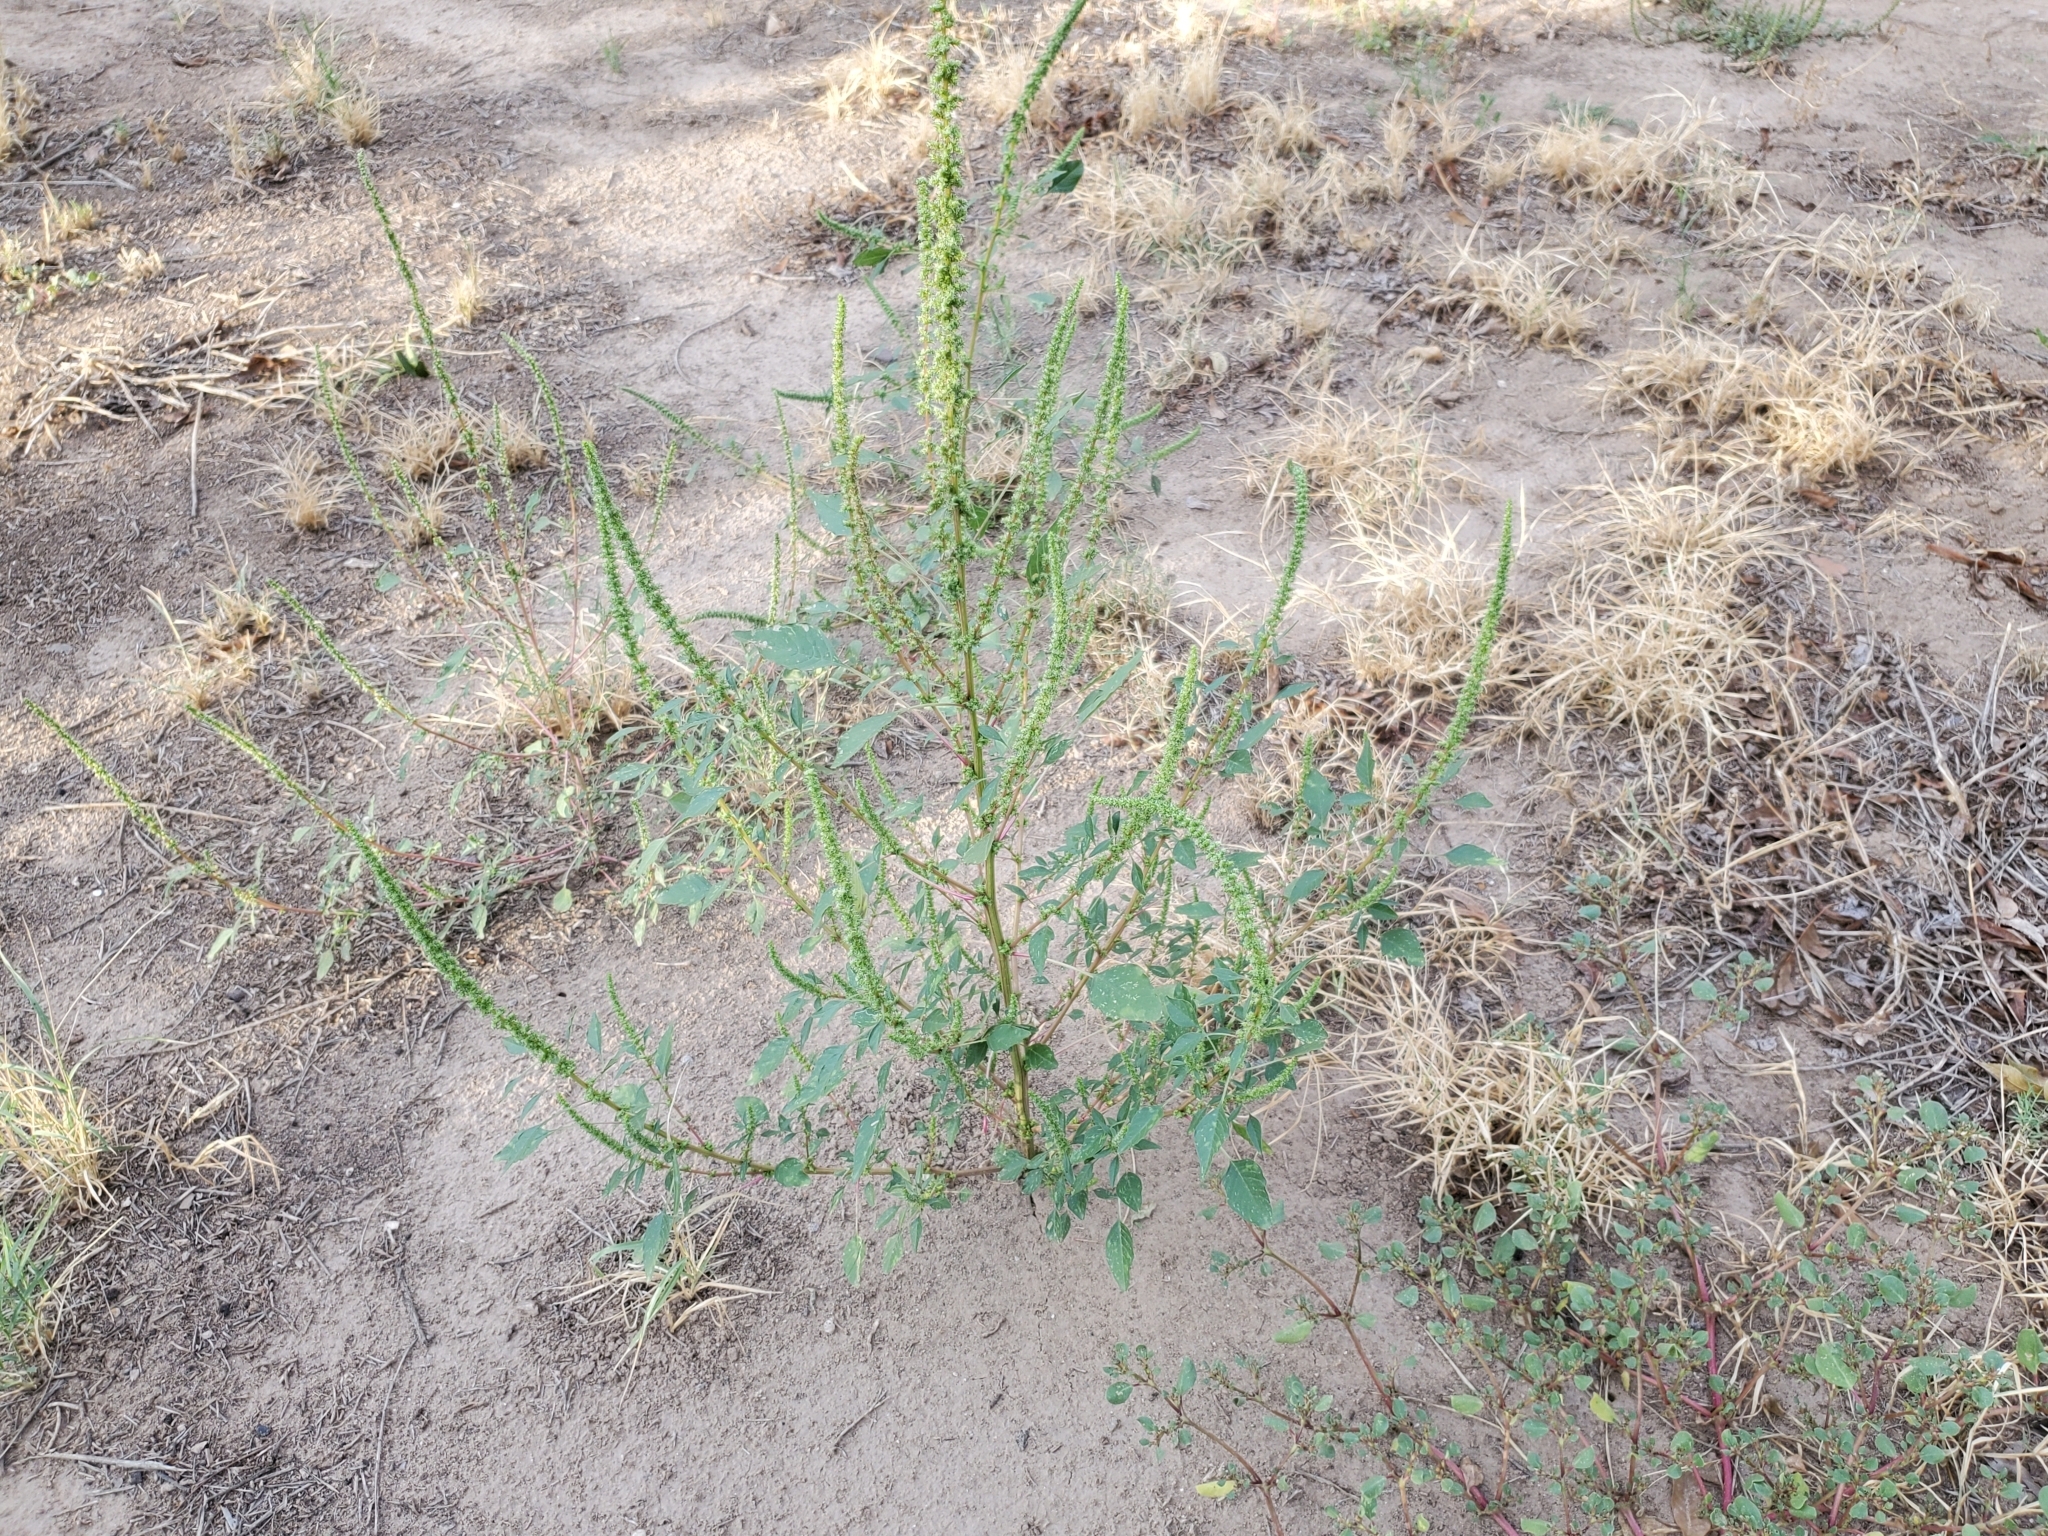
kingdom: Plantae
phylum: Tracheophyta
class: Magnoliopsida
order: Caryophyllales
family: Amaranthaceae
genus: Amaranthus
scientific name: Amaranthus palmeri
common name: Dioecious amaranth
